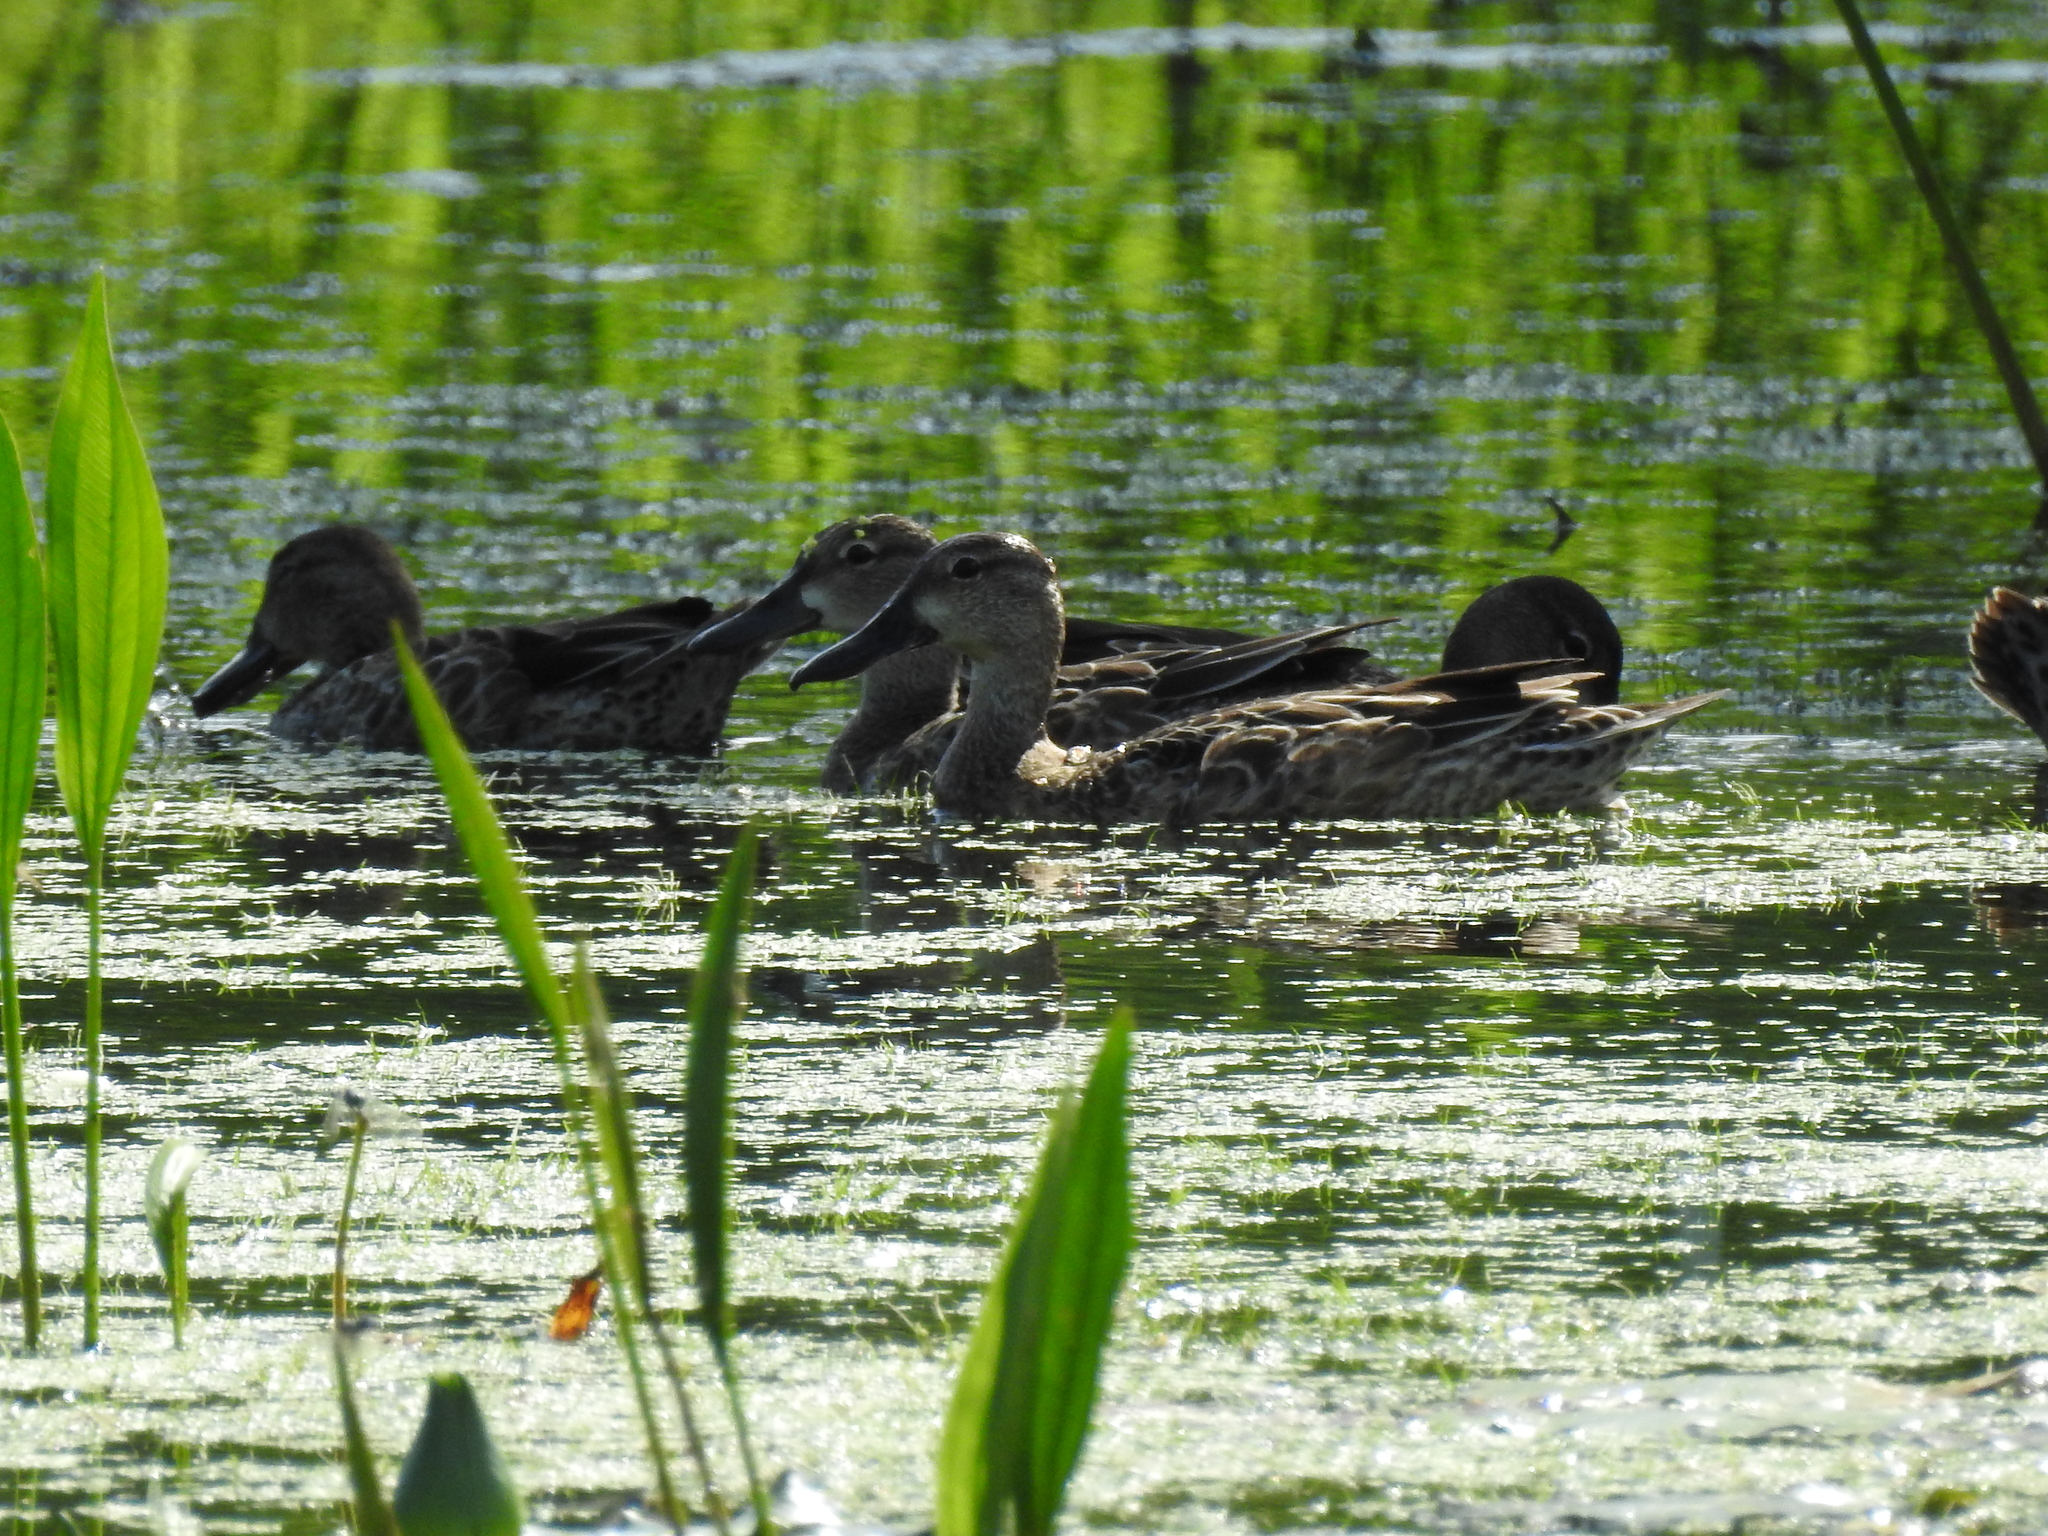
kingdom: Animalia
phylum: Chordata
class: Aves
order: Anseriformes
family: Anatidae
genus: Spatula
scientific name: Spatula discors
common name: Blue-winged teal
